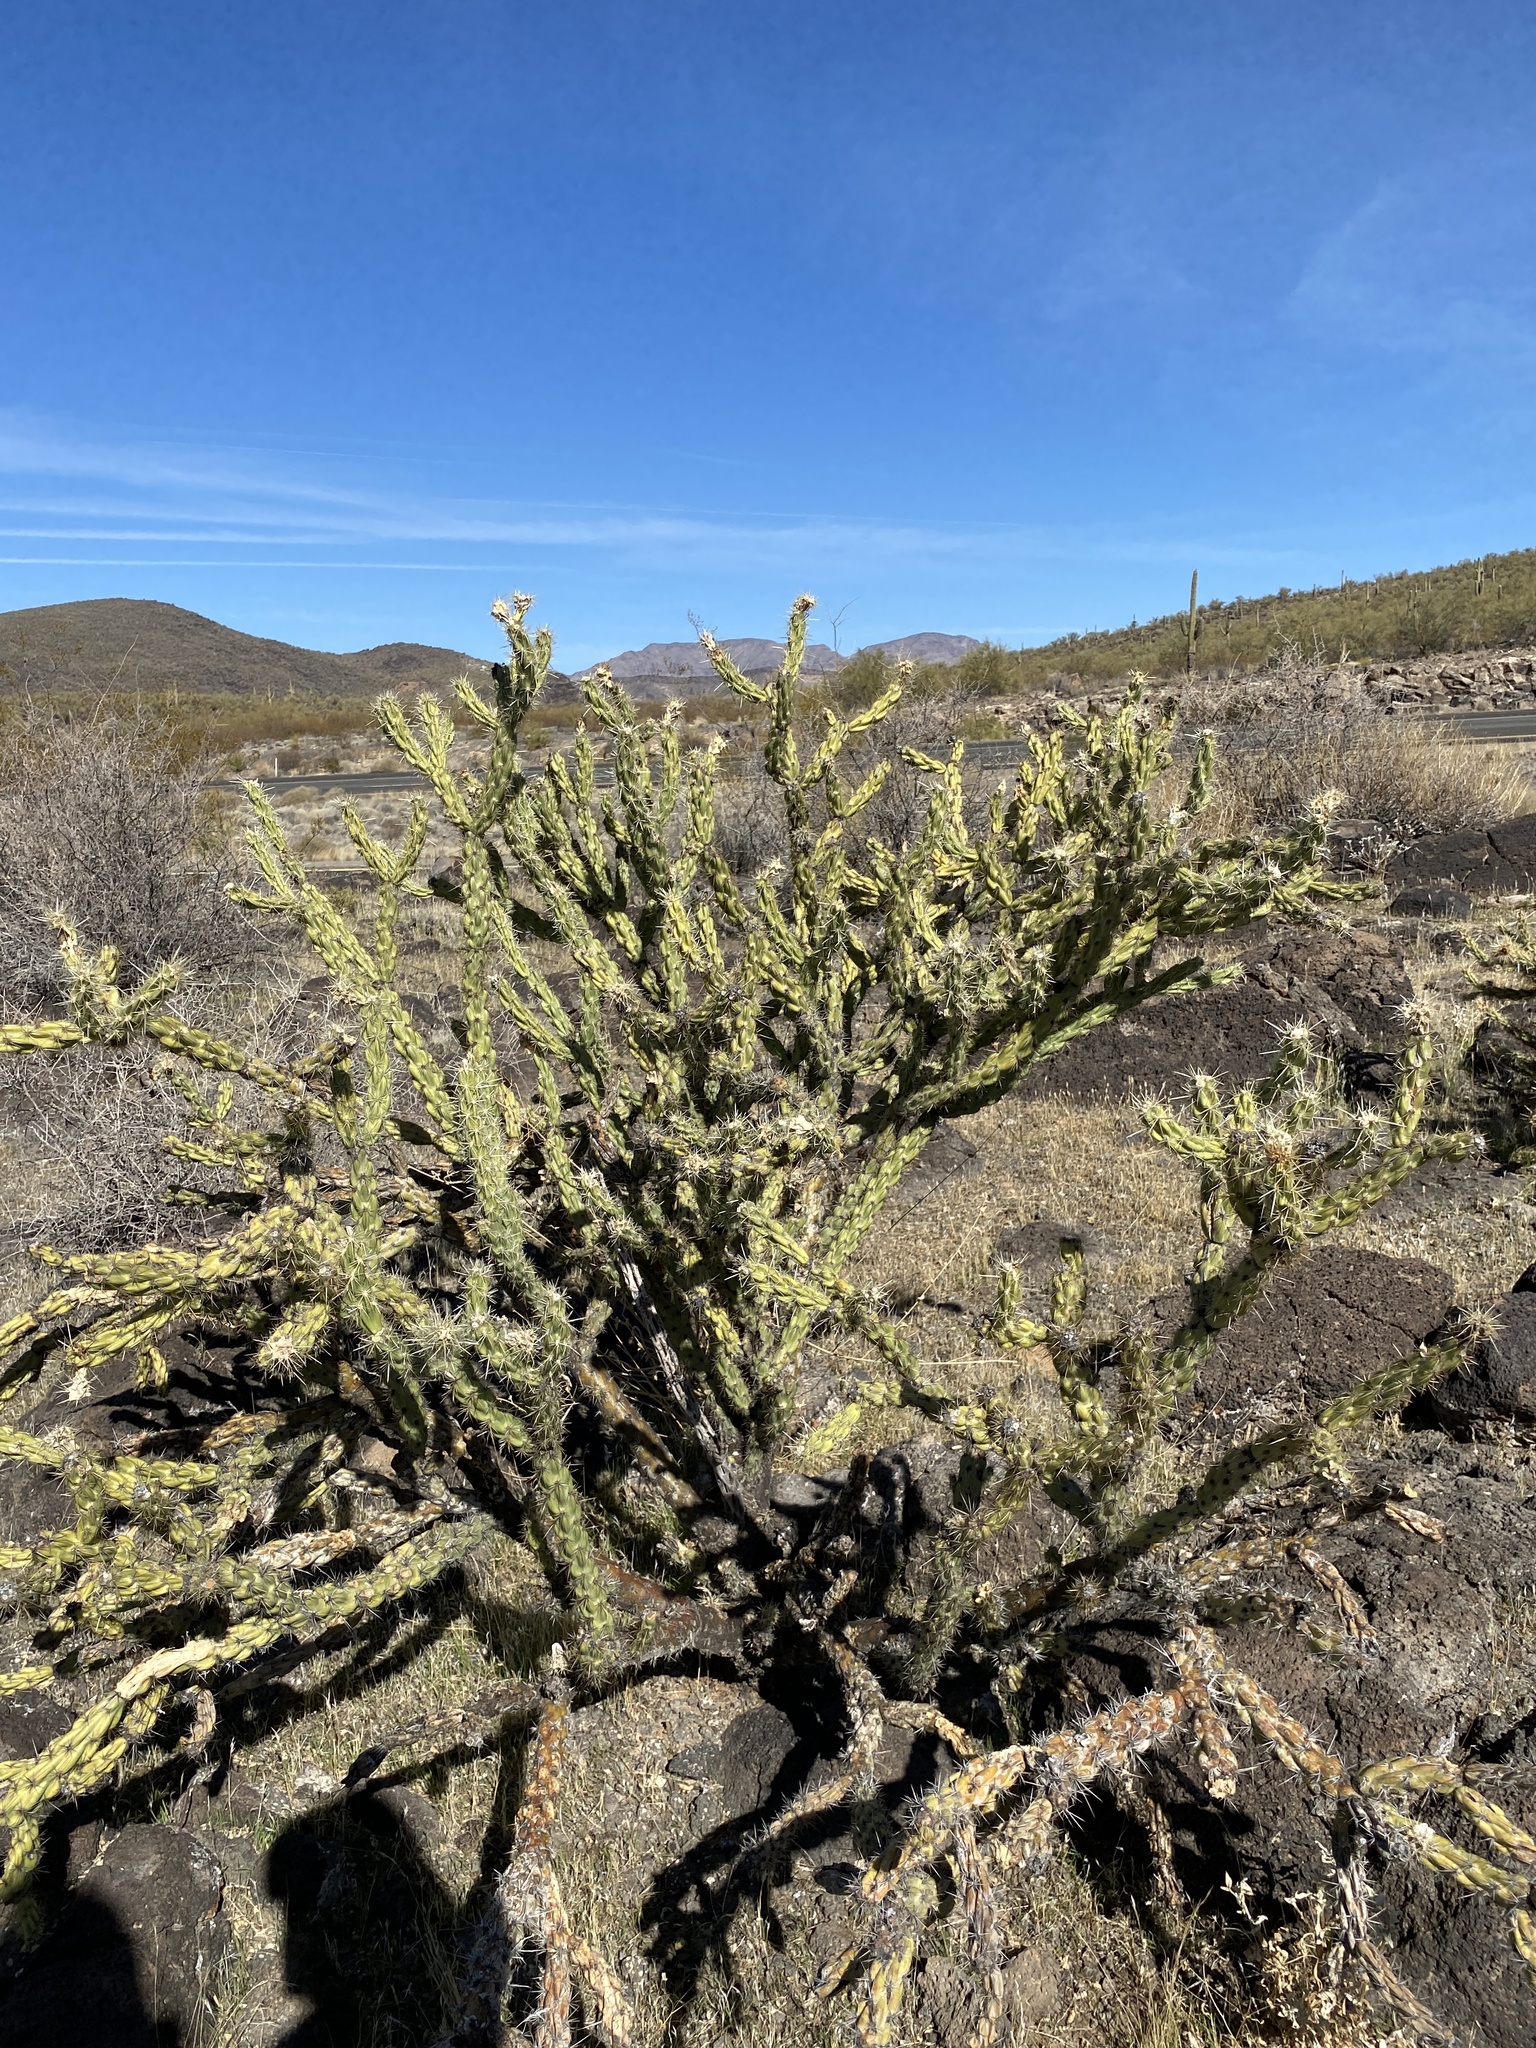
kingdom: Plantae
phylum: Tracheophyta
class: Magnoliopsida
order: Caryophyllales
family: Cactaceae
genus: Cylindropuntia
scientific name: Cylindropuntia acanthocarpa
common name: Buckhorn cholla
